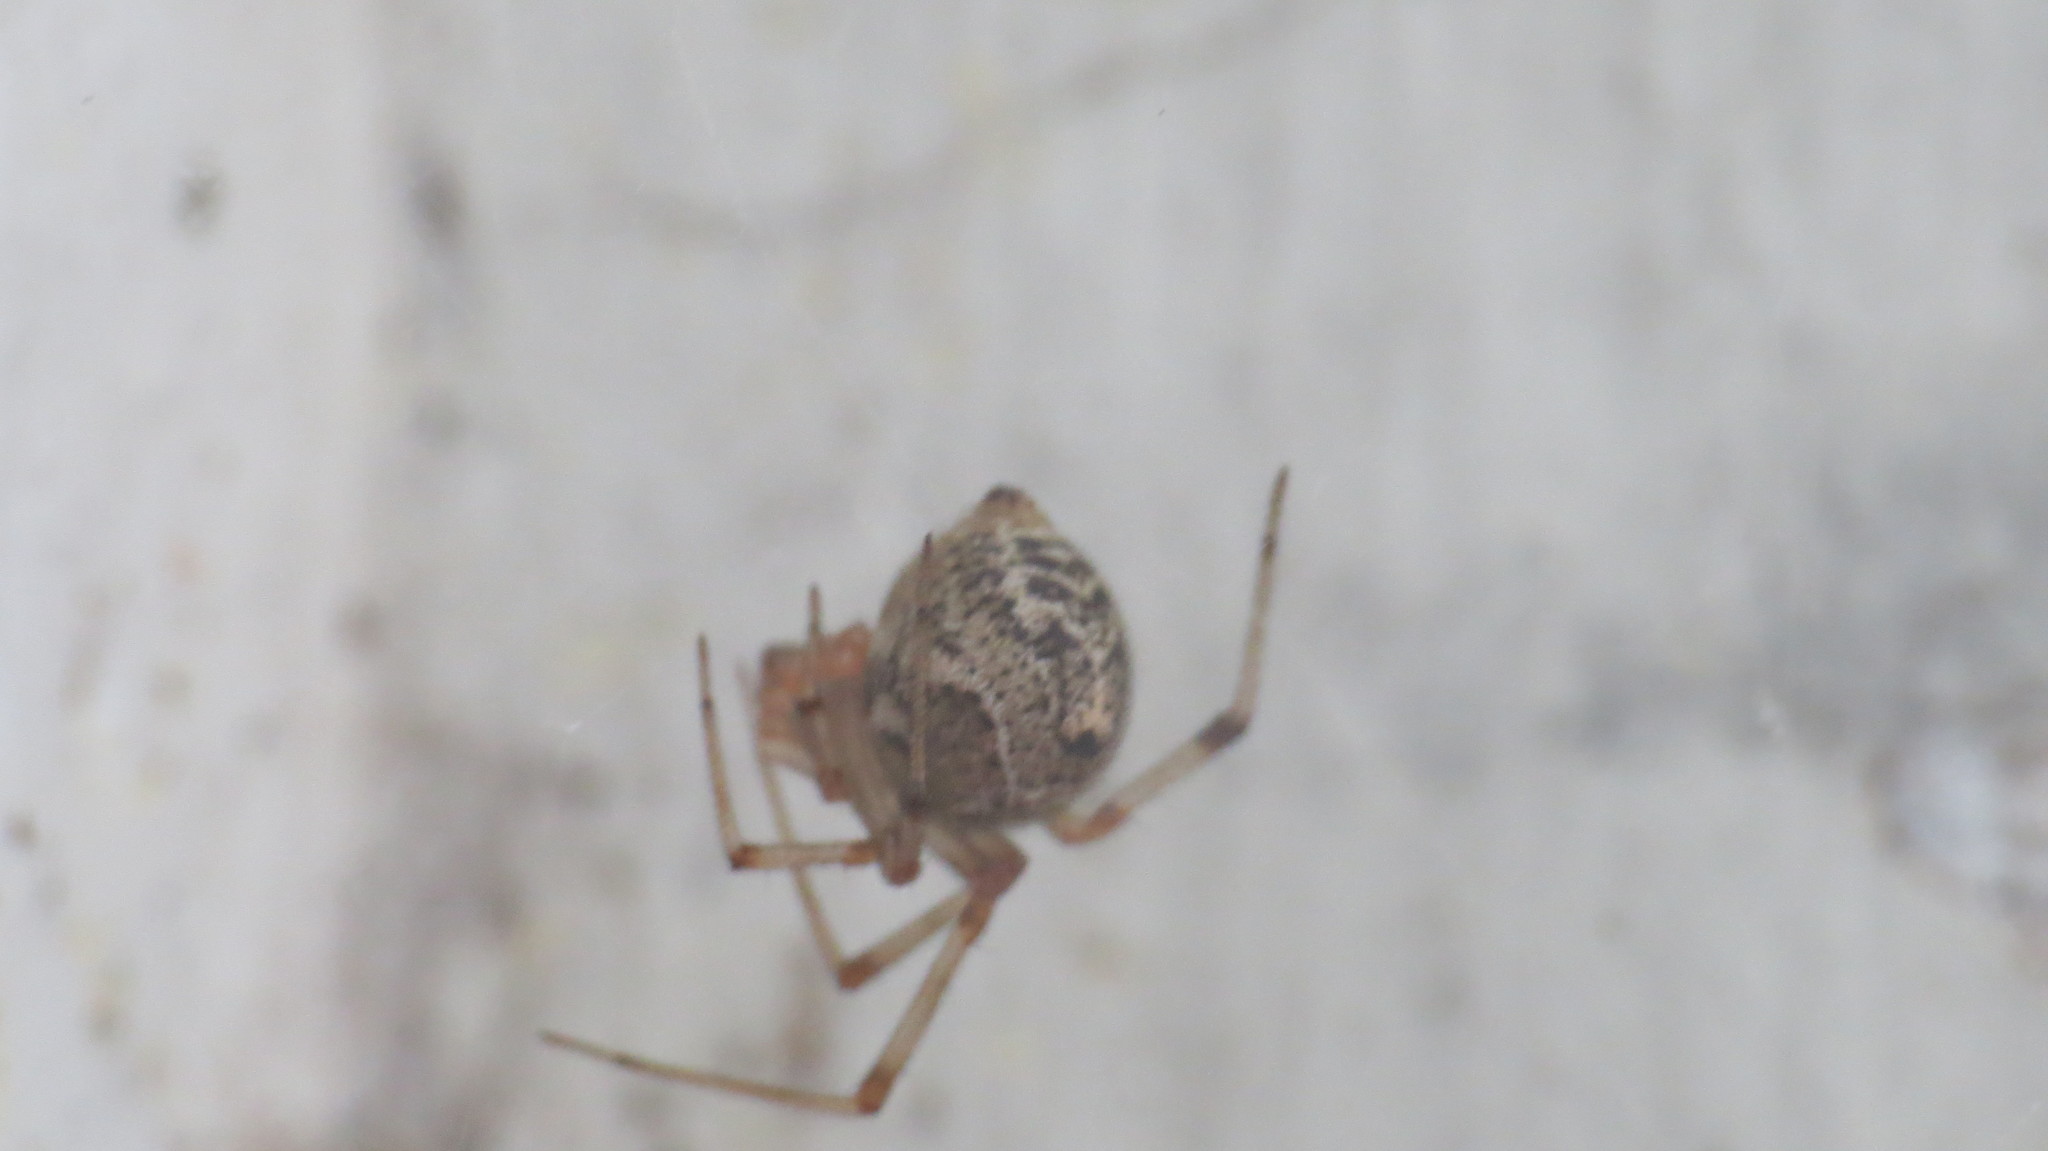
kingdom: Animalia
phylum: Arthropoda
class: Arachnida
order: Araneae
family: Theridiidae
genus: Parasteatoda
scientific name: Parasteatoda tepidariorum
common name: Common house spider
